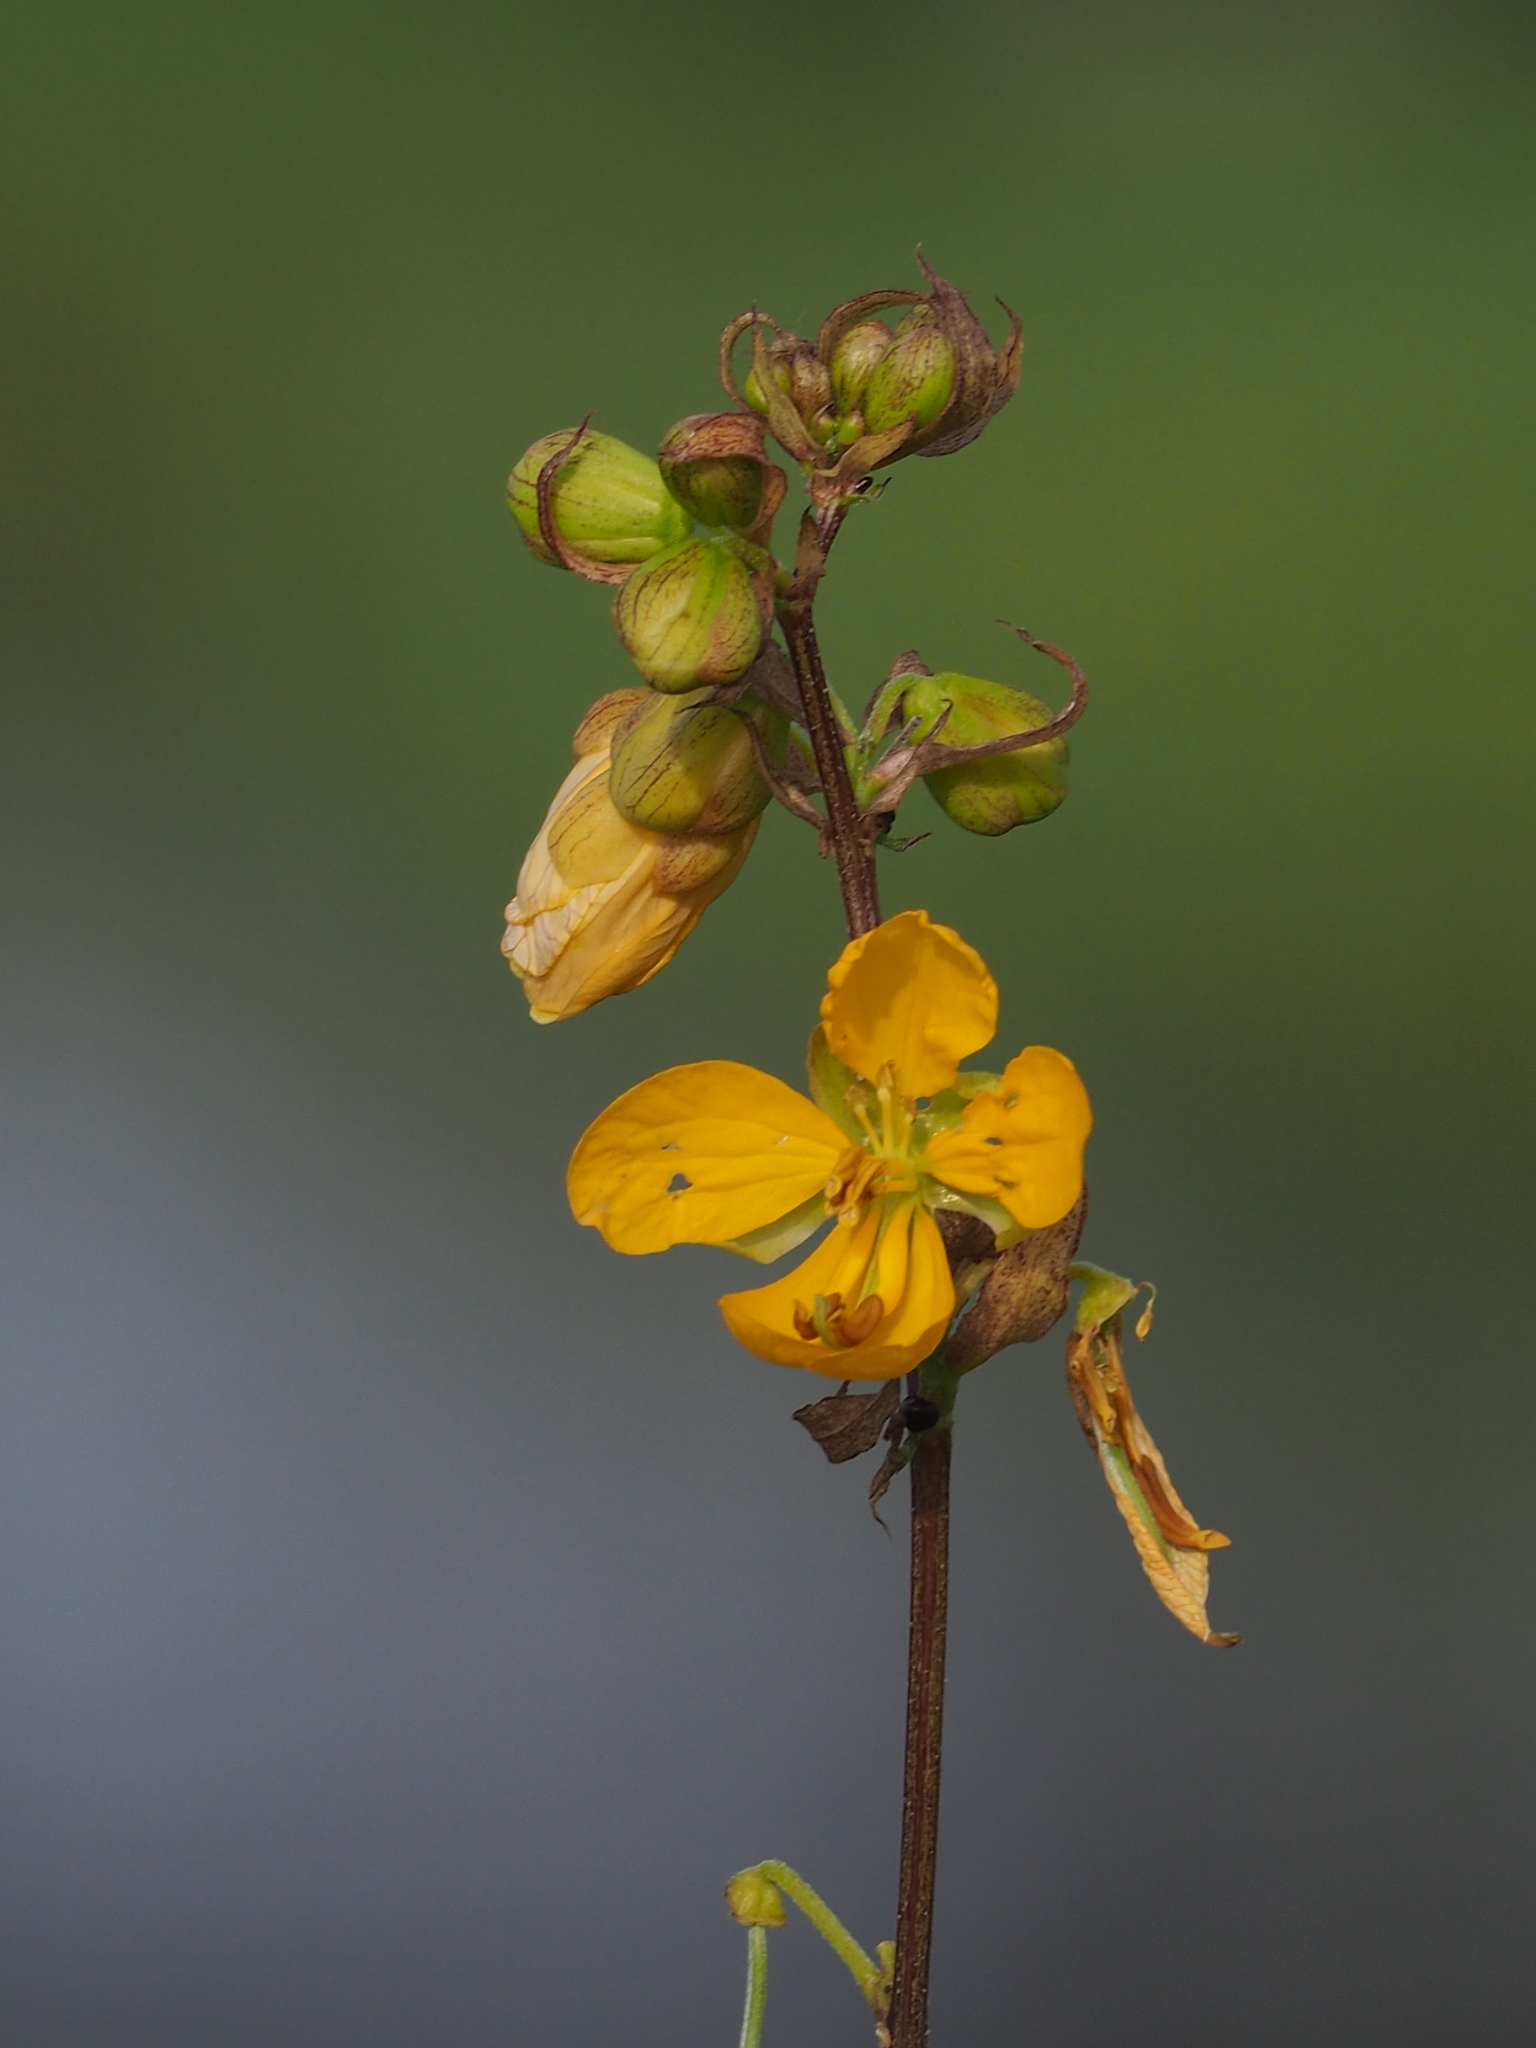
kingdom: Plantae
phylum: Tracheophyta
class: Magnoliopsida
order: Fabales
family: Fabaceae
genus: Senna
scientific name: Senna occidentalis
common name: Septicweed
